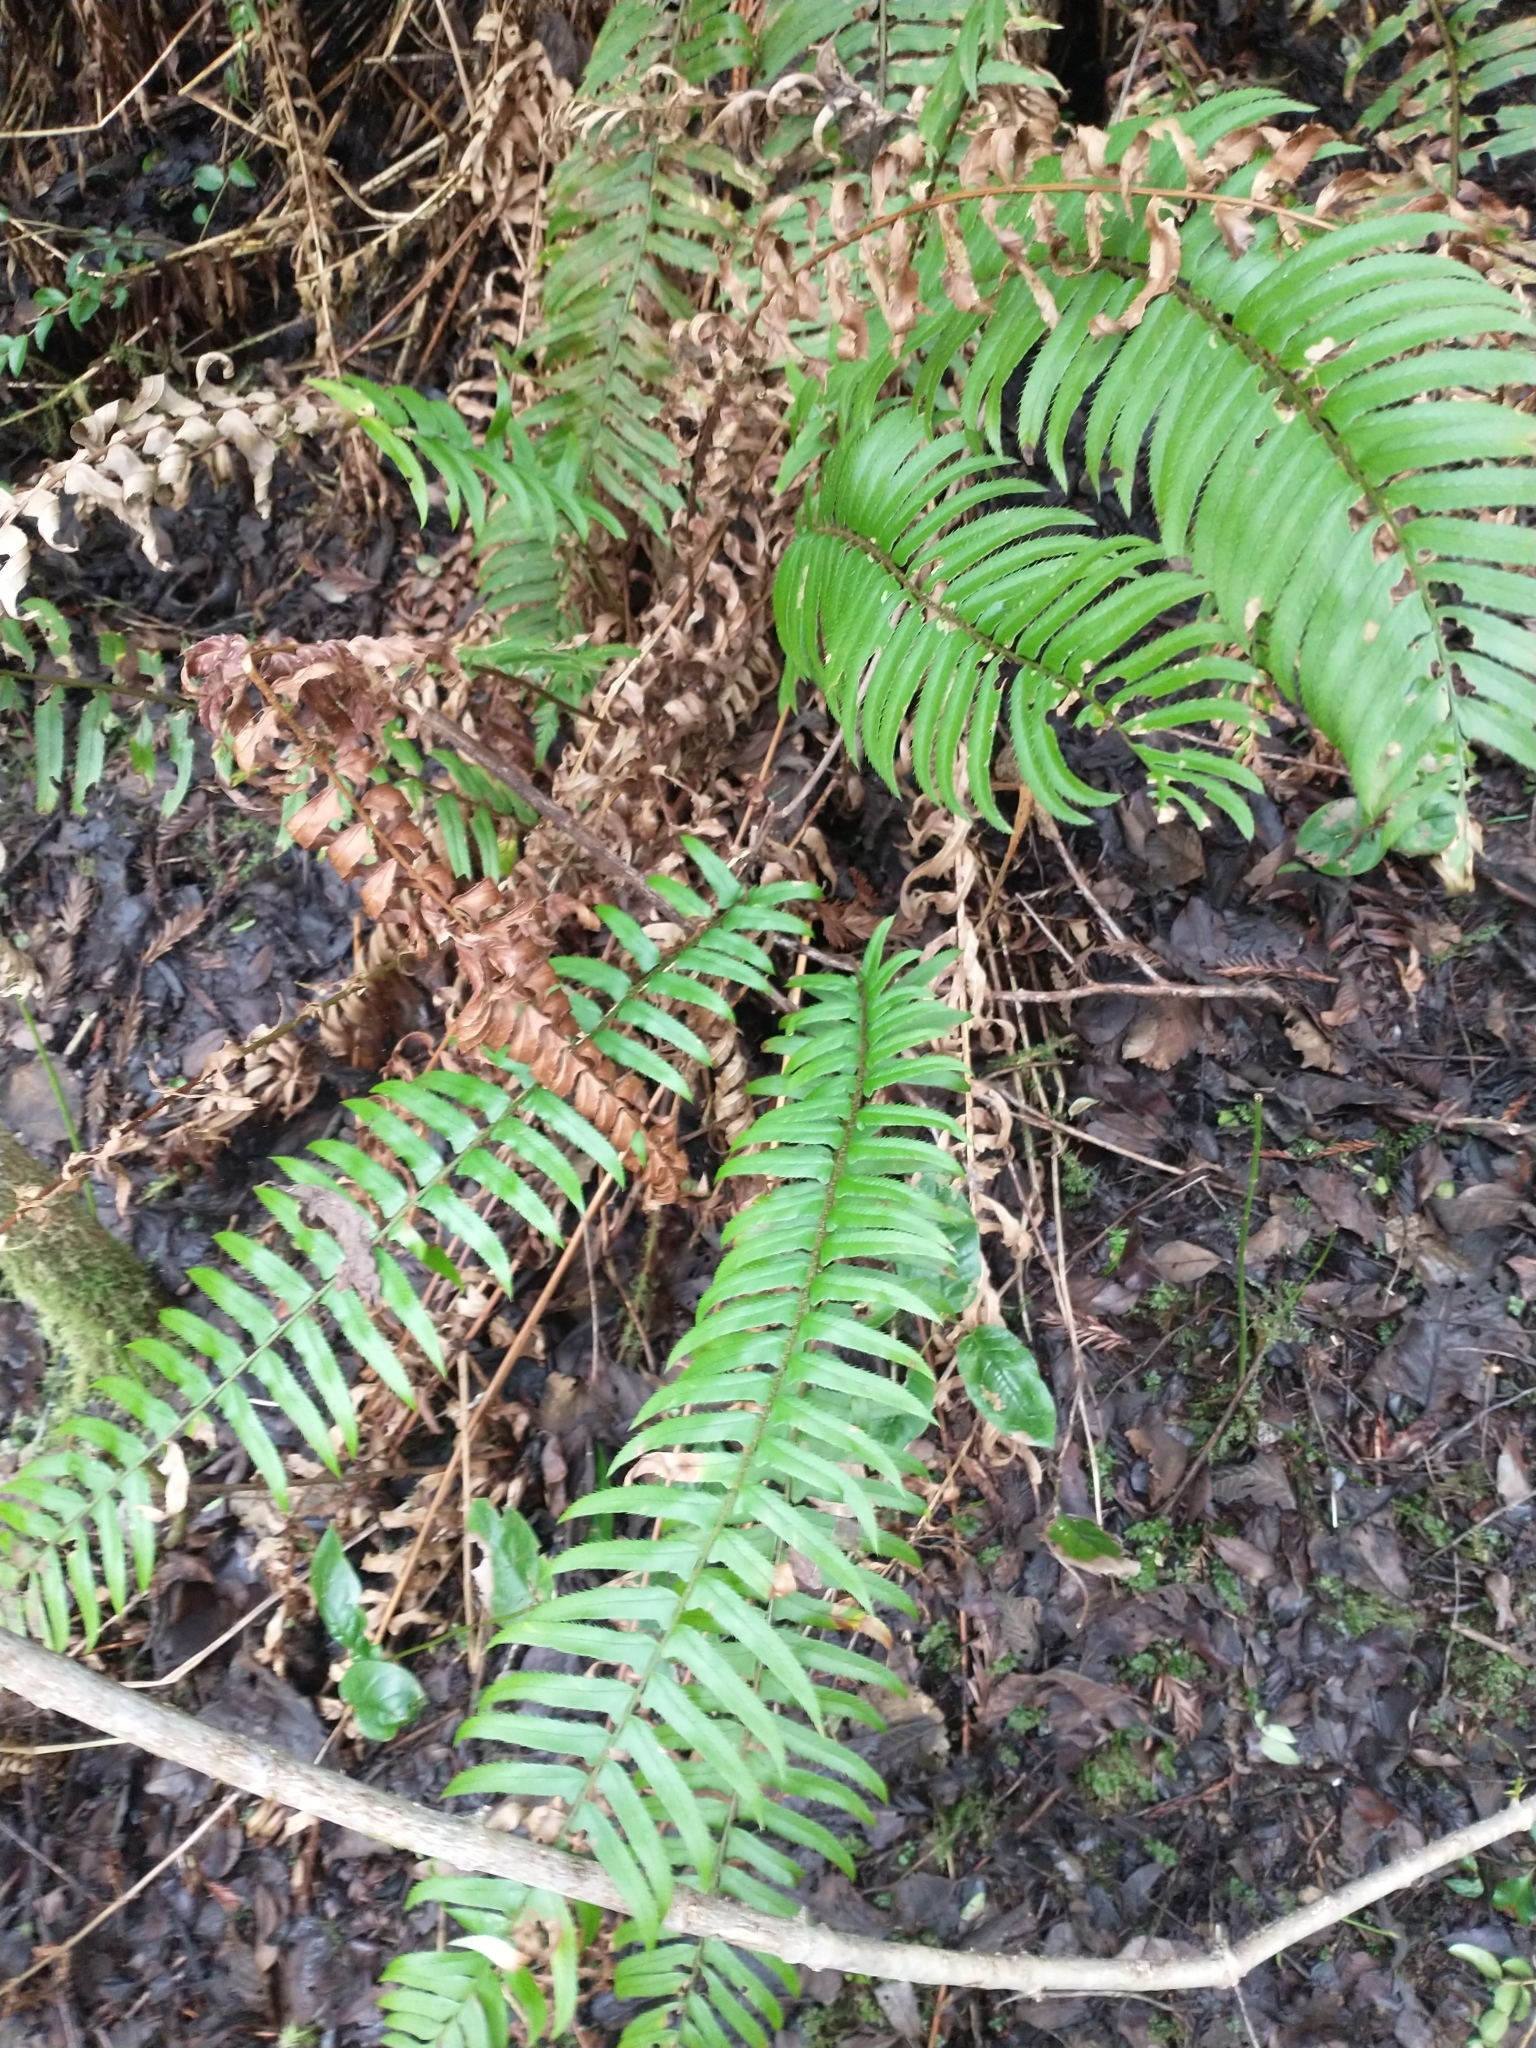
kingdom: Plantae
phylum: Tracheophyta
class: Polypodiopsida
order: Polypodiales
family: Dryopteridaceae
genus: Polystichum
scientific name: Polystichum munitum
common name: Western sword-fern
